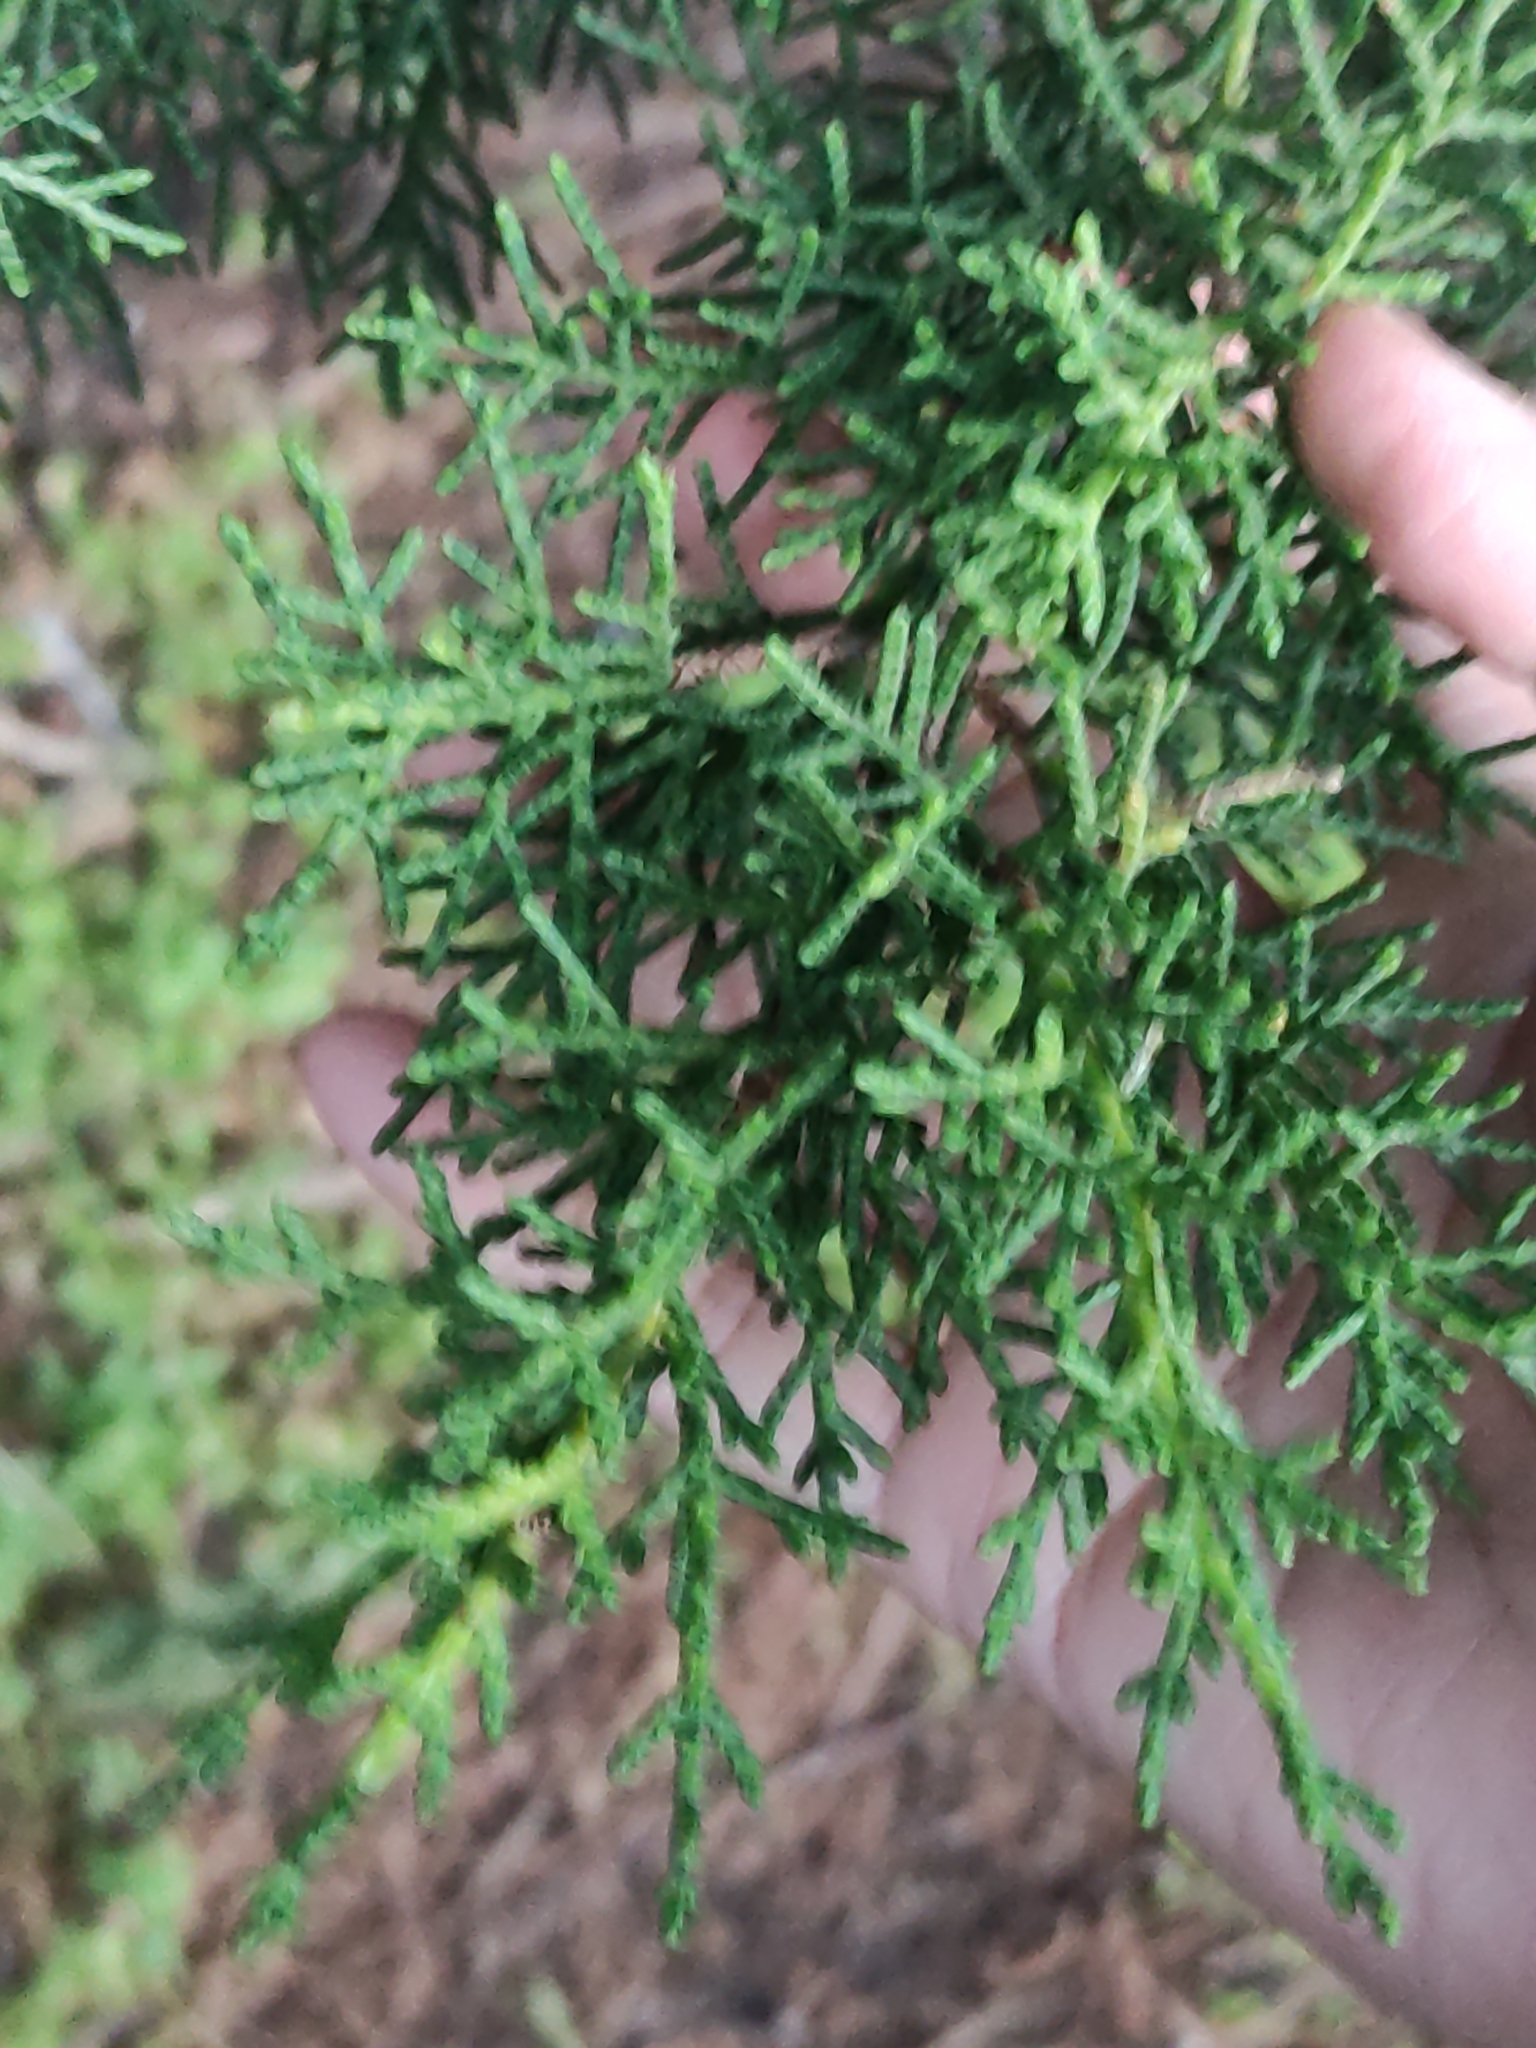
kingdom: Plantae
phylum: Tracheophyta
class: Pinopsida
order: Pinales
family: Cupressaceae
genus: Cupressus
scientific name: Cupressus macrocarpa
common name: Monterey cypress
